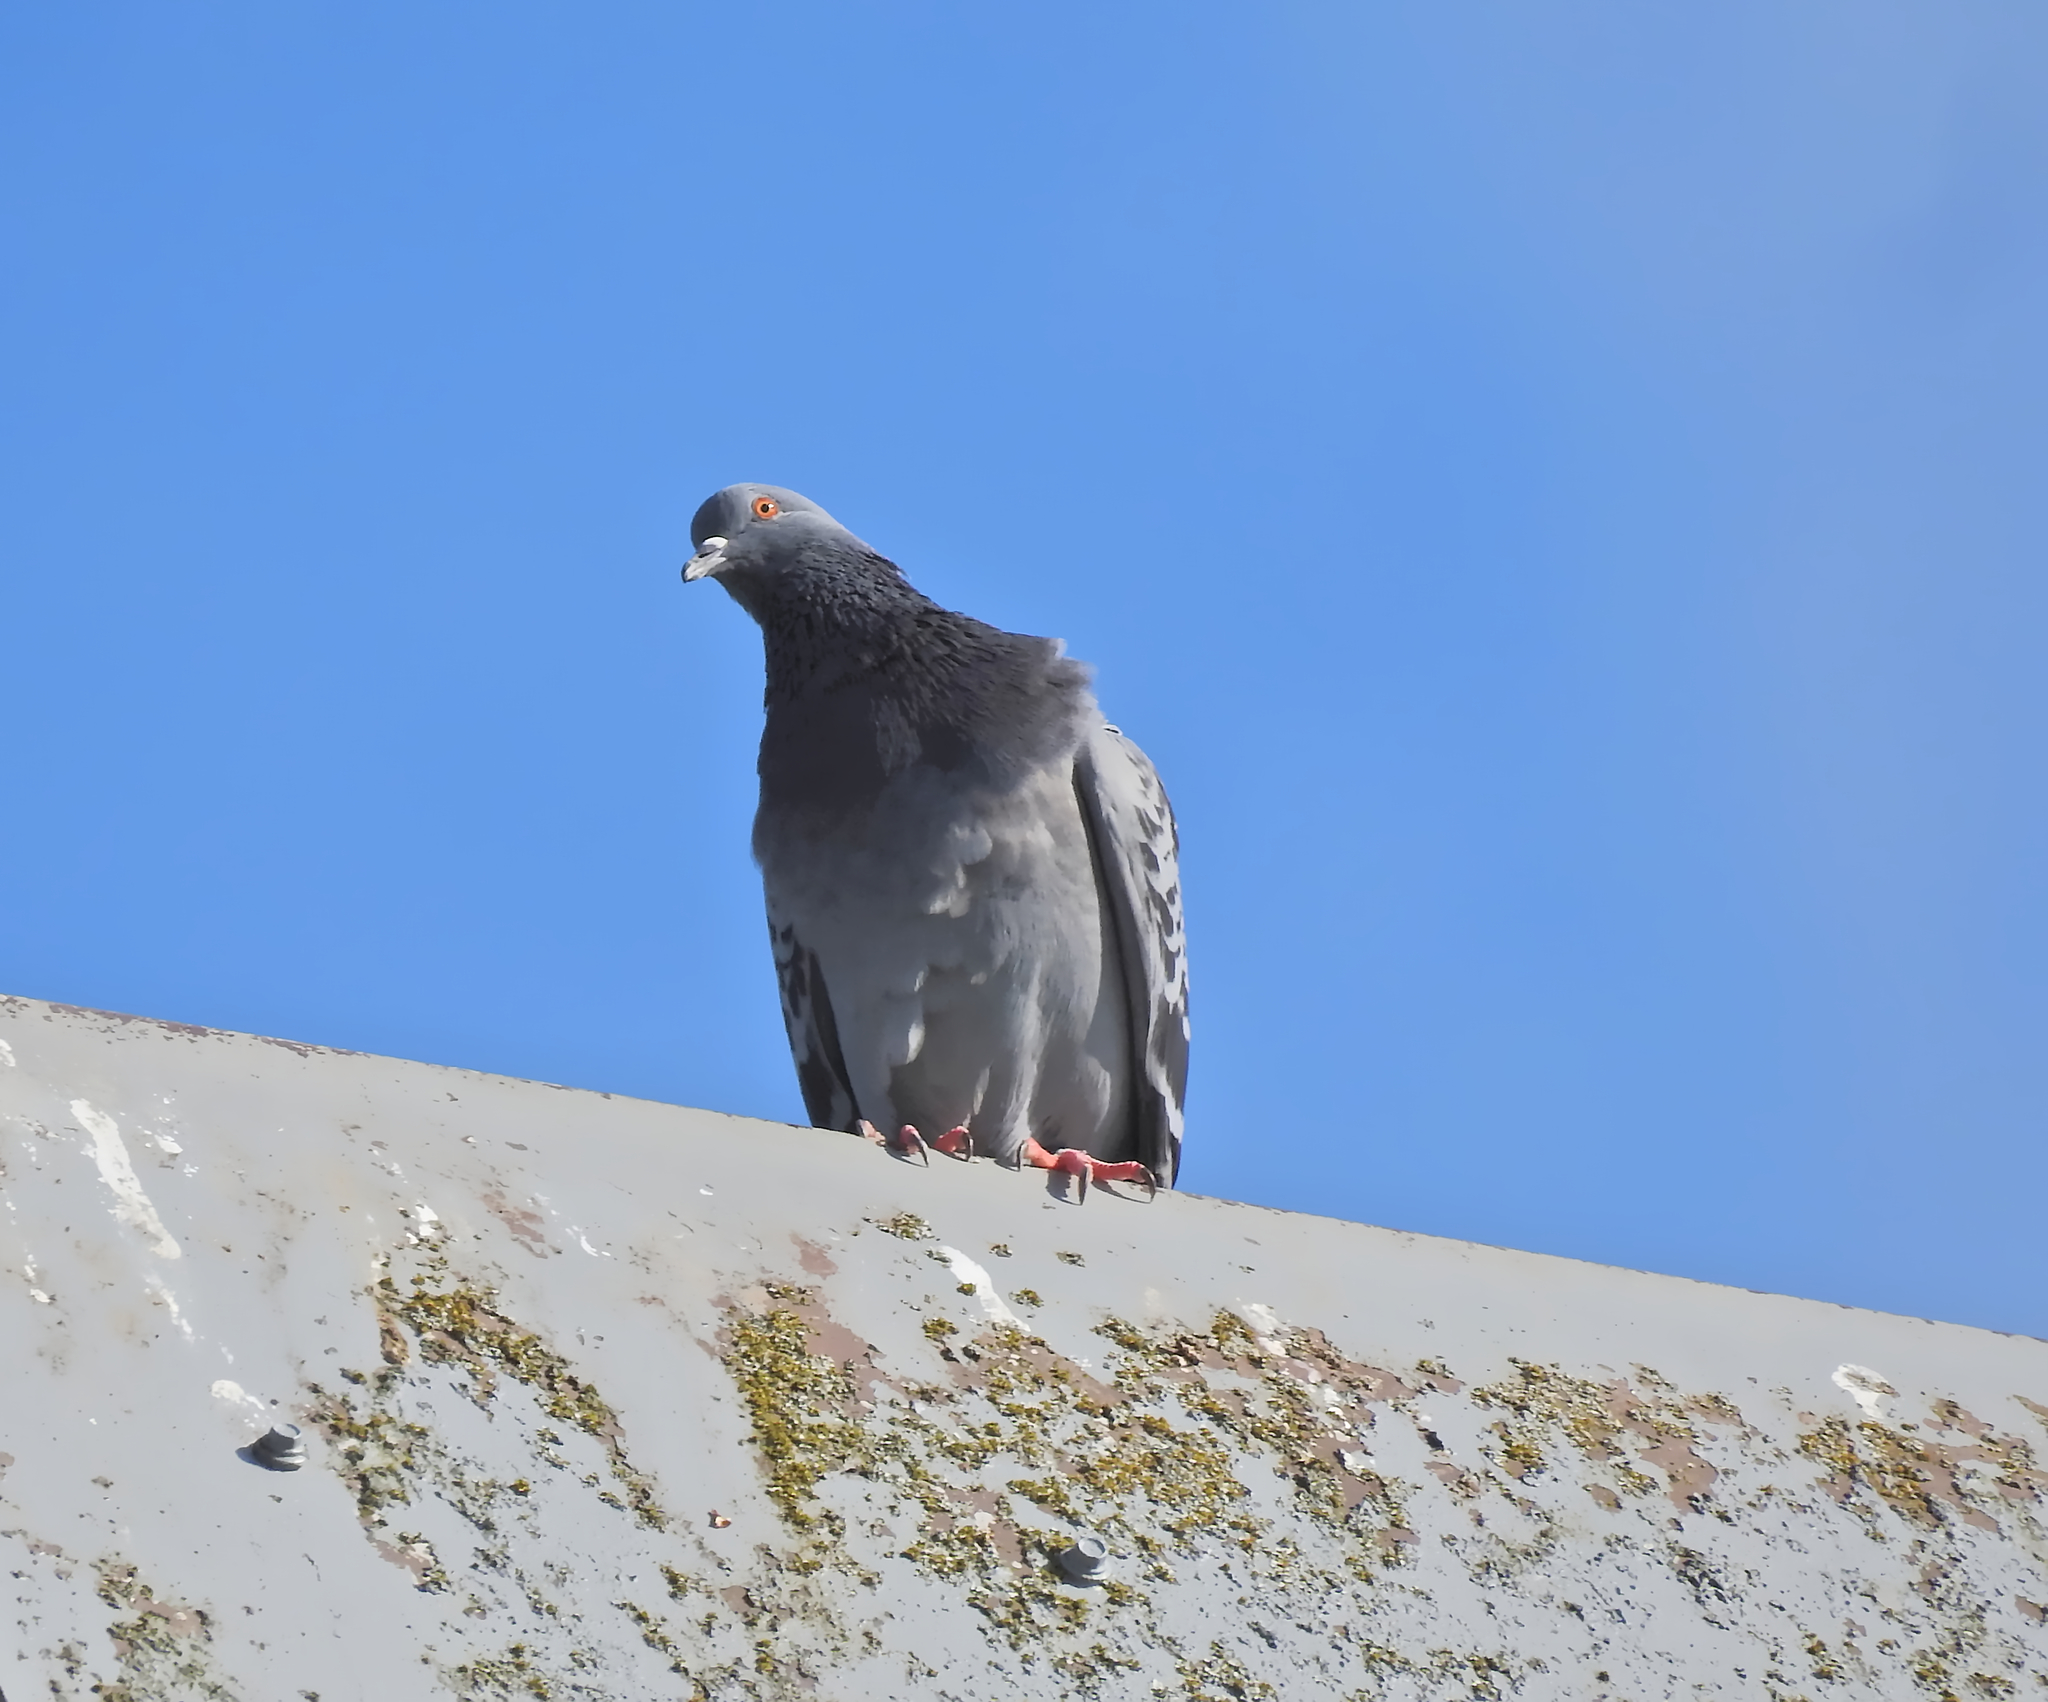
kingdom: Animalia
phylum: Chordata
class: Aves
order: Columbiformes
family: Columbidae
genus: Columba
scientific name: Columba livia
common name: Rock pigeon
